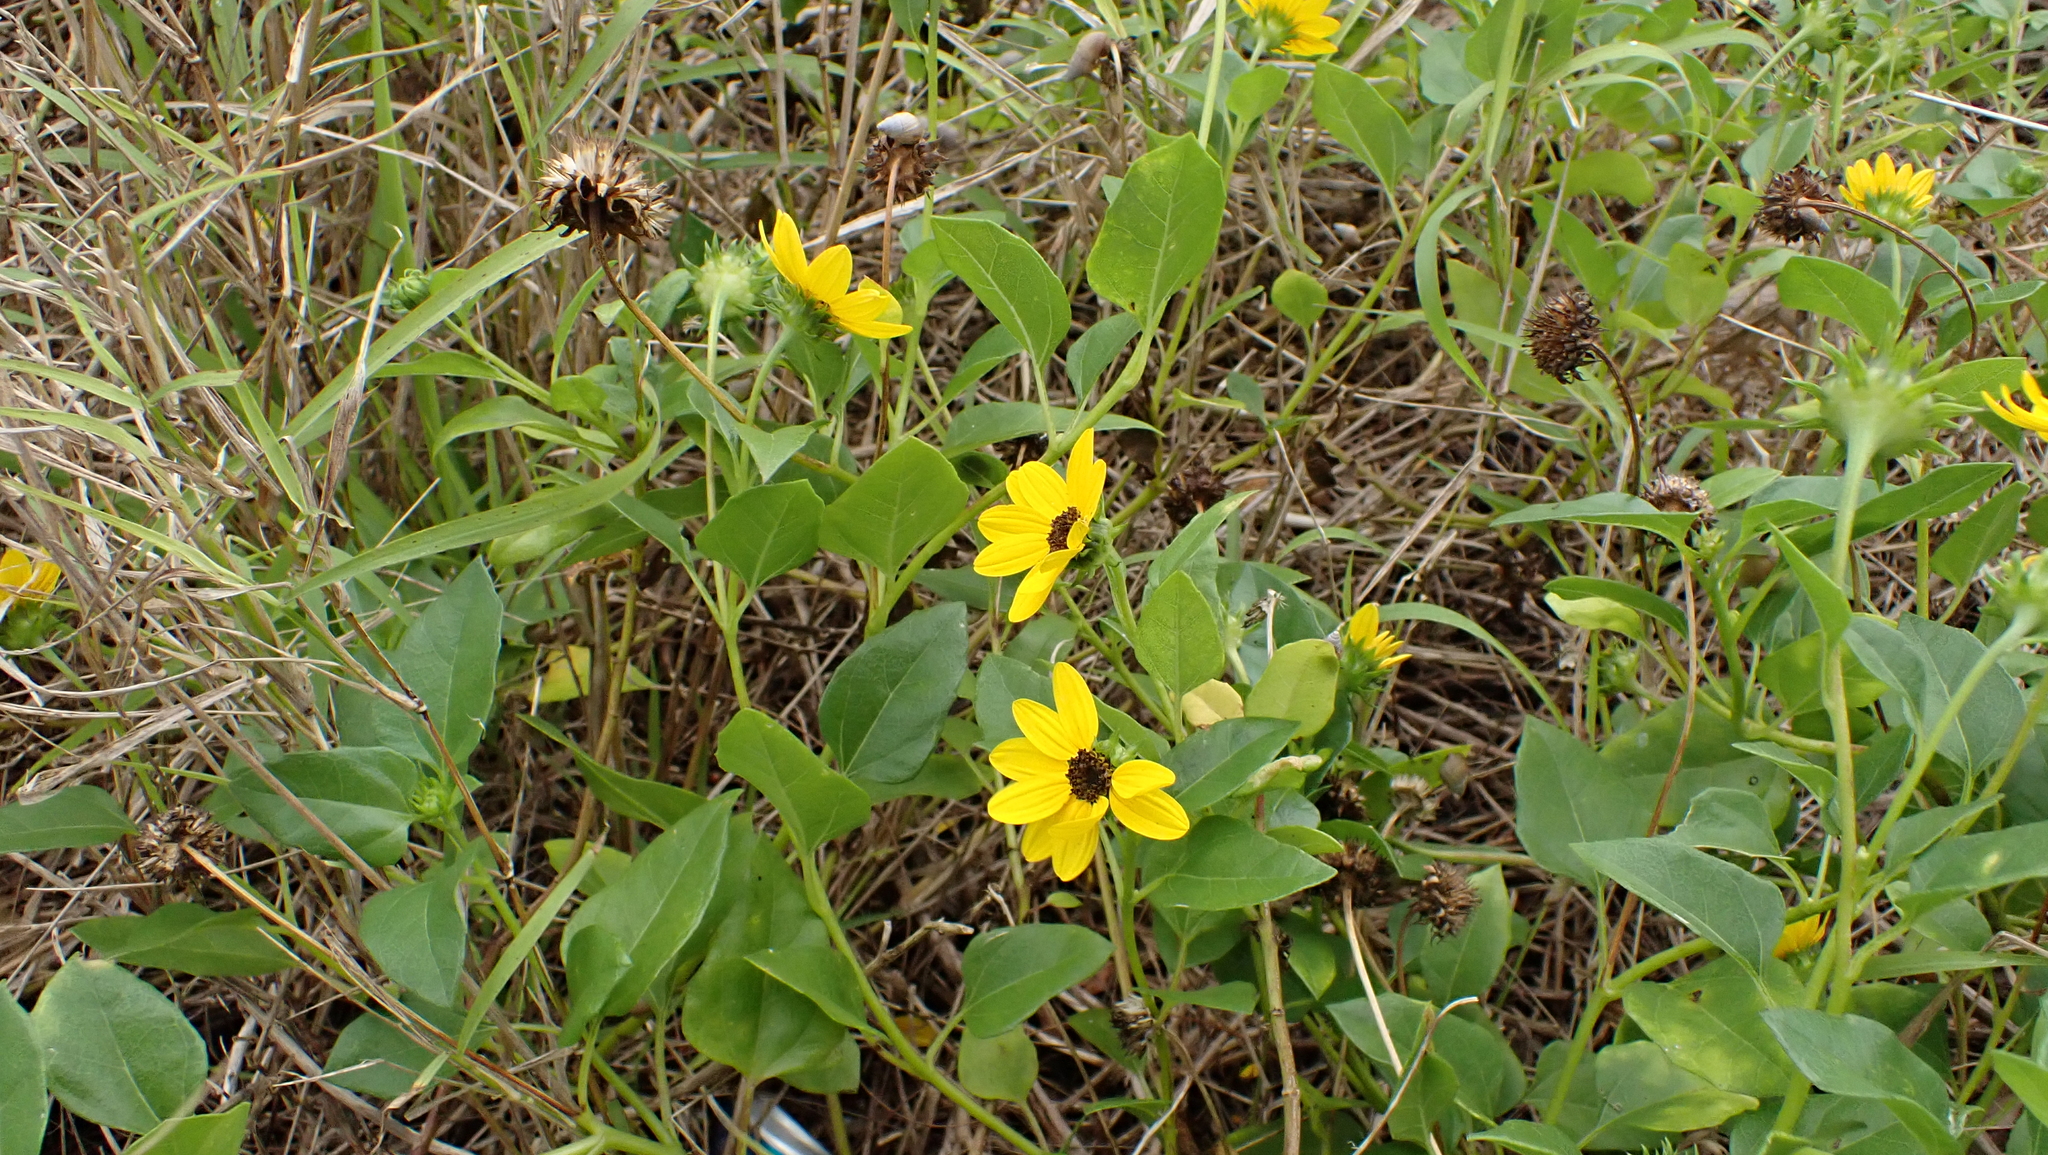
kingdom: Plantae
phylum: Tracheophyta
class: Magnoliopsida
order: Asterales
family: Asteraceae
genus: Helianthus
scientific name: Helianthus debilis
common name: Weak sunflower
